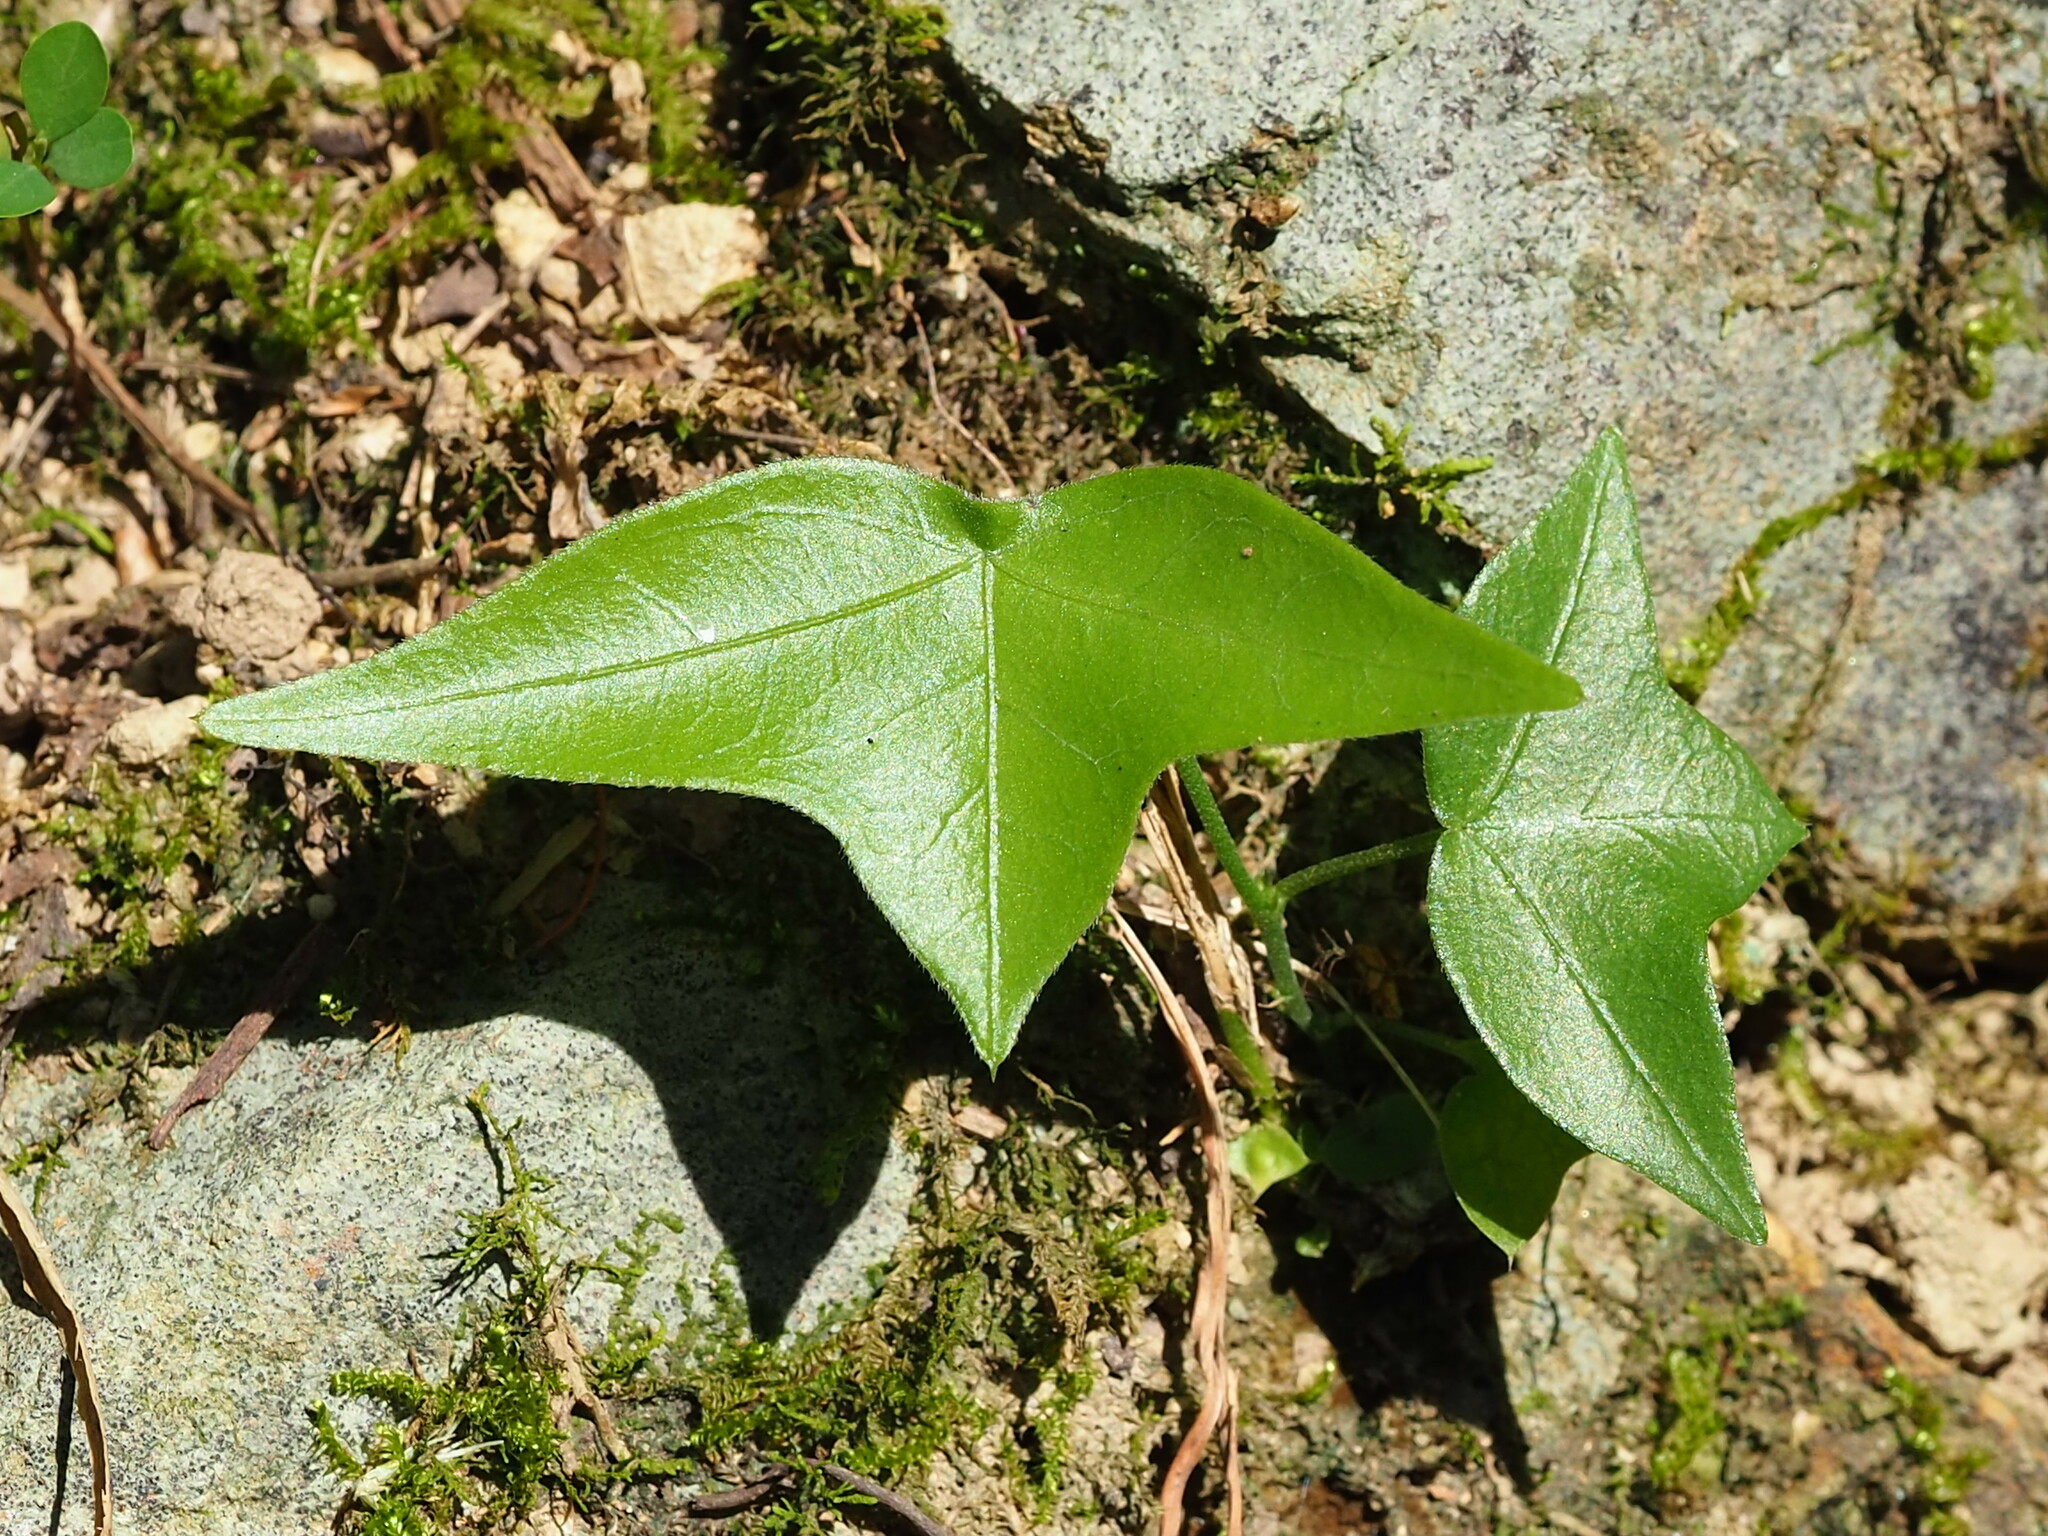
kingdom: Plantae
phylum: Tracheophyta
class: Magnoliopsida
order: Malpighiales
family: Passifloraceae
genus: Passiflora
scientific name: Passiflora suberosa
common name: Wild passionfruit
